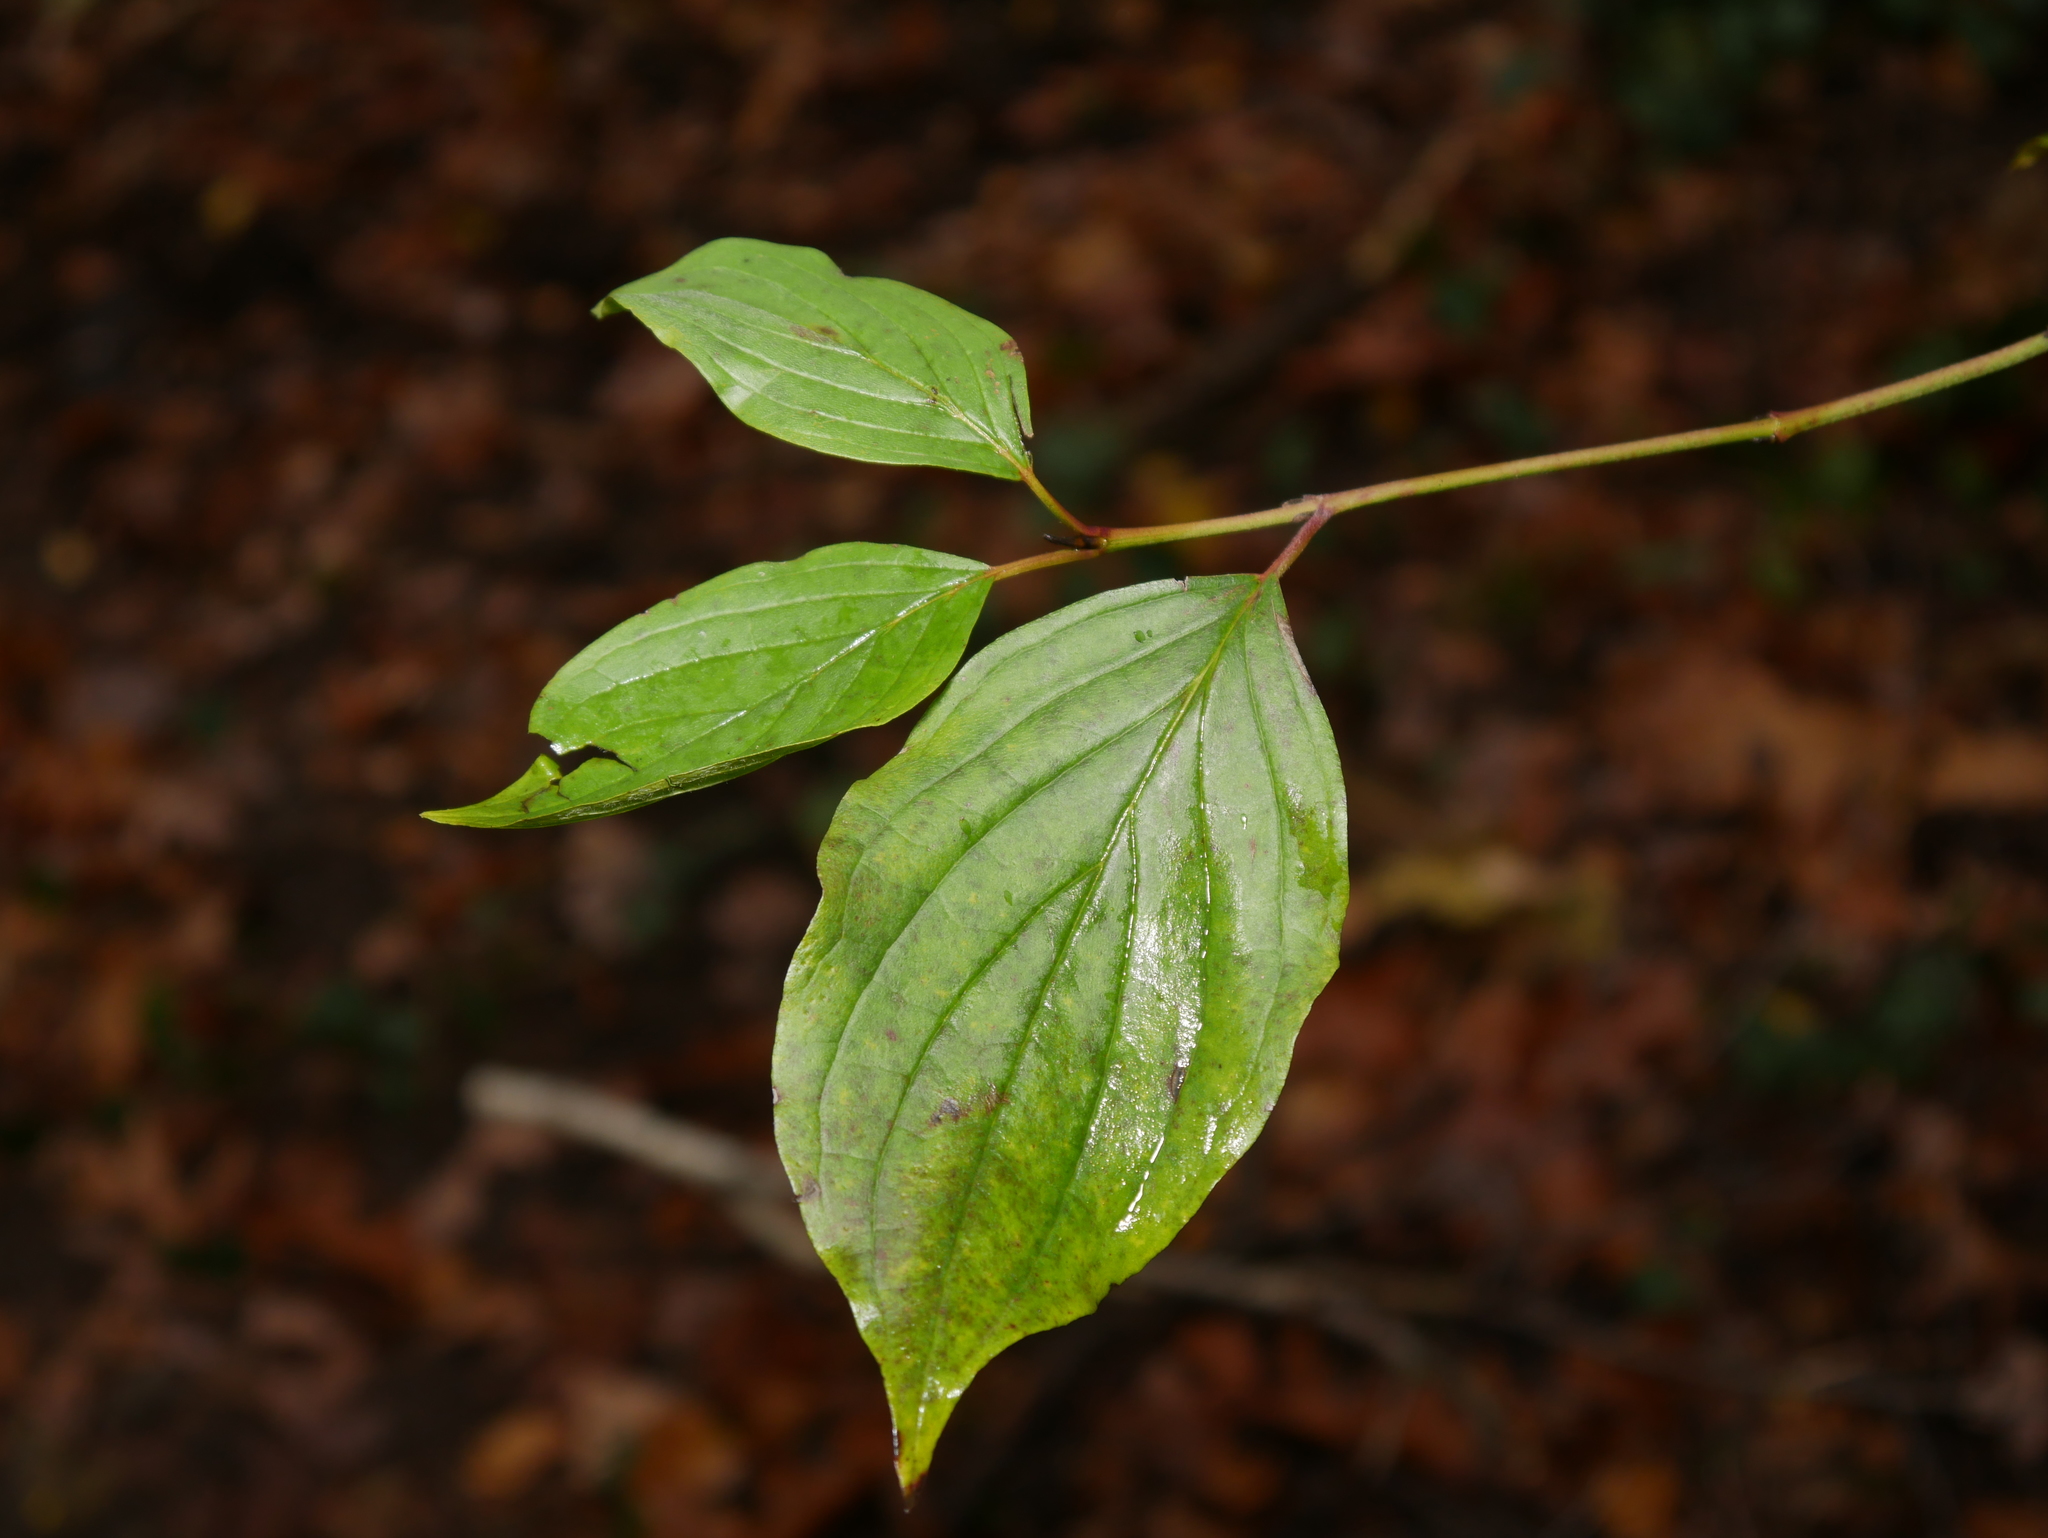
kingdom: Plantae
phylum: Tracheophyta
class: Magnoliopsida
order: Cornales
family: Cornaceae
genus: Cornus
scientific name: Cornus sanguinea
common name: Dogwood
